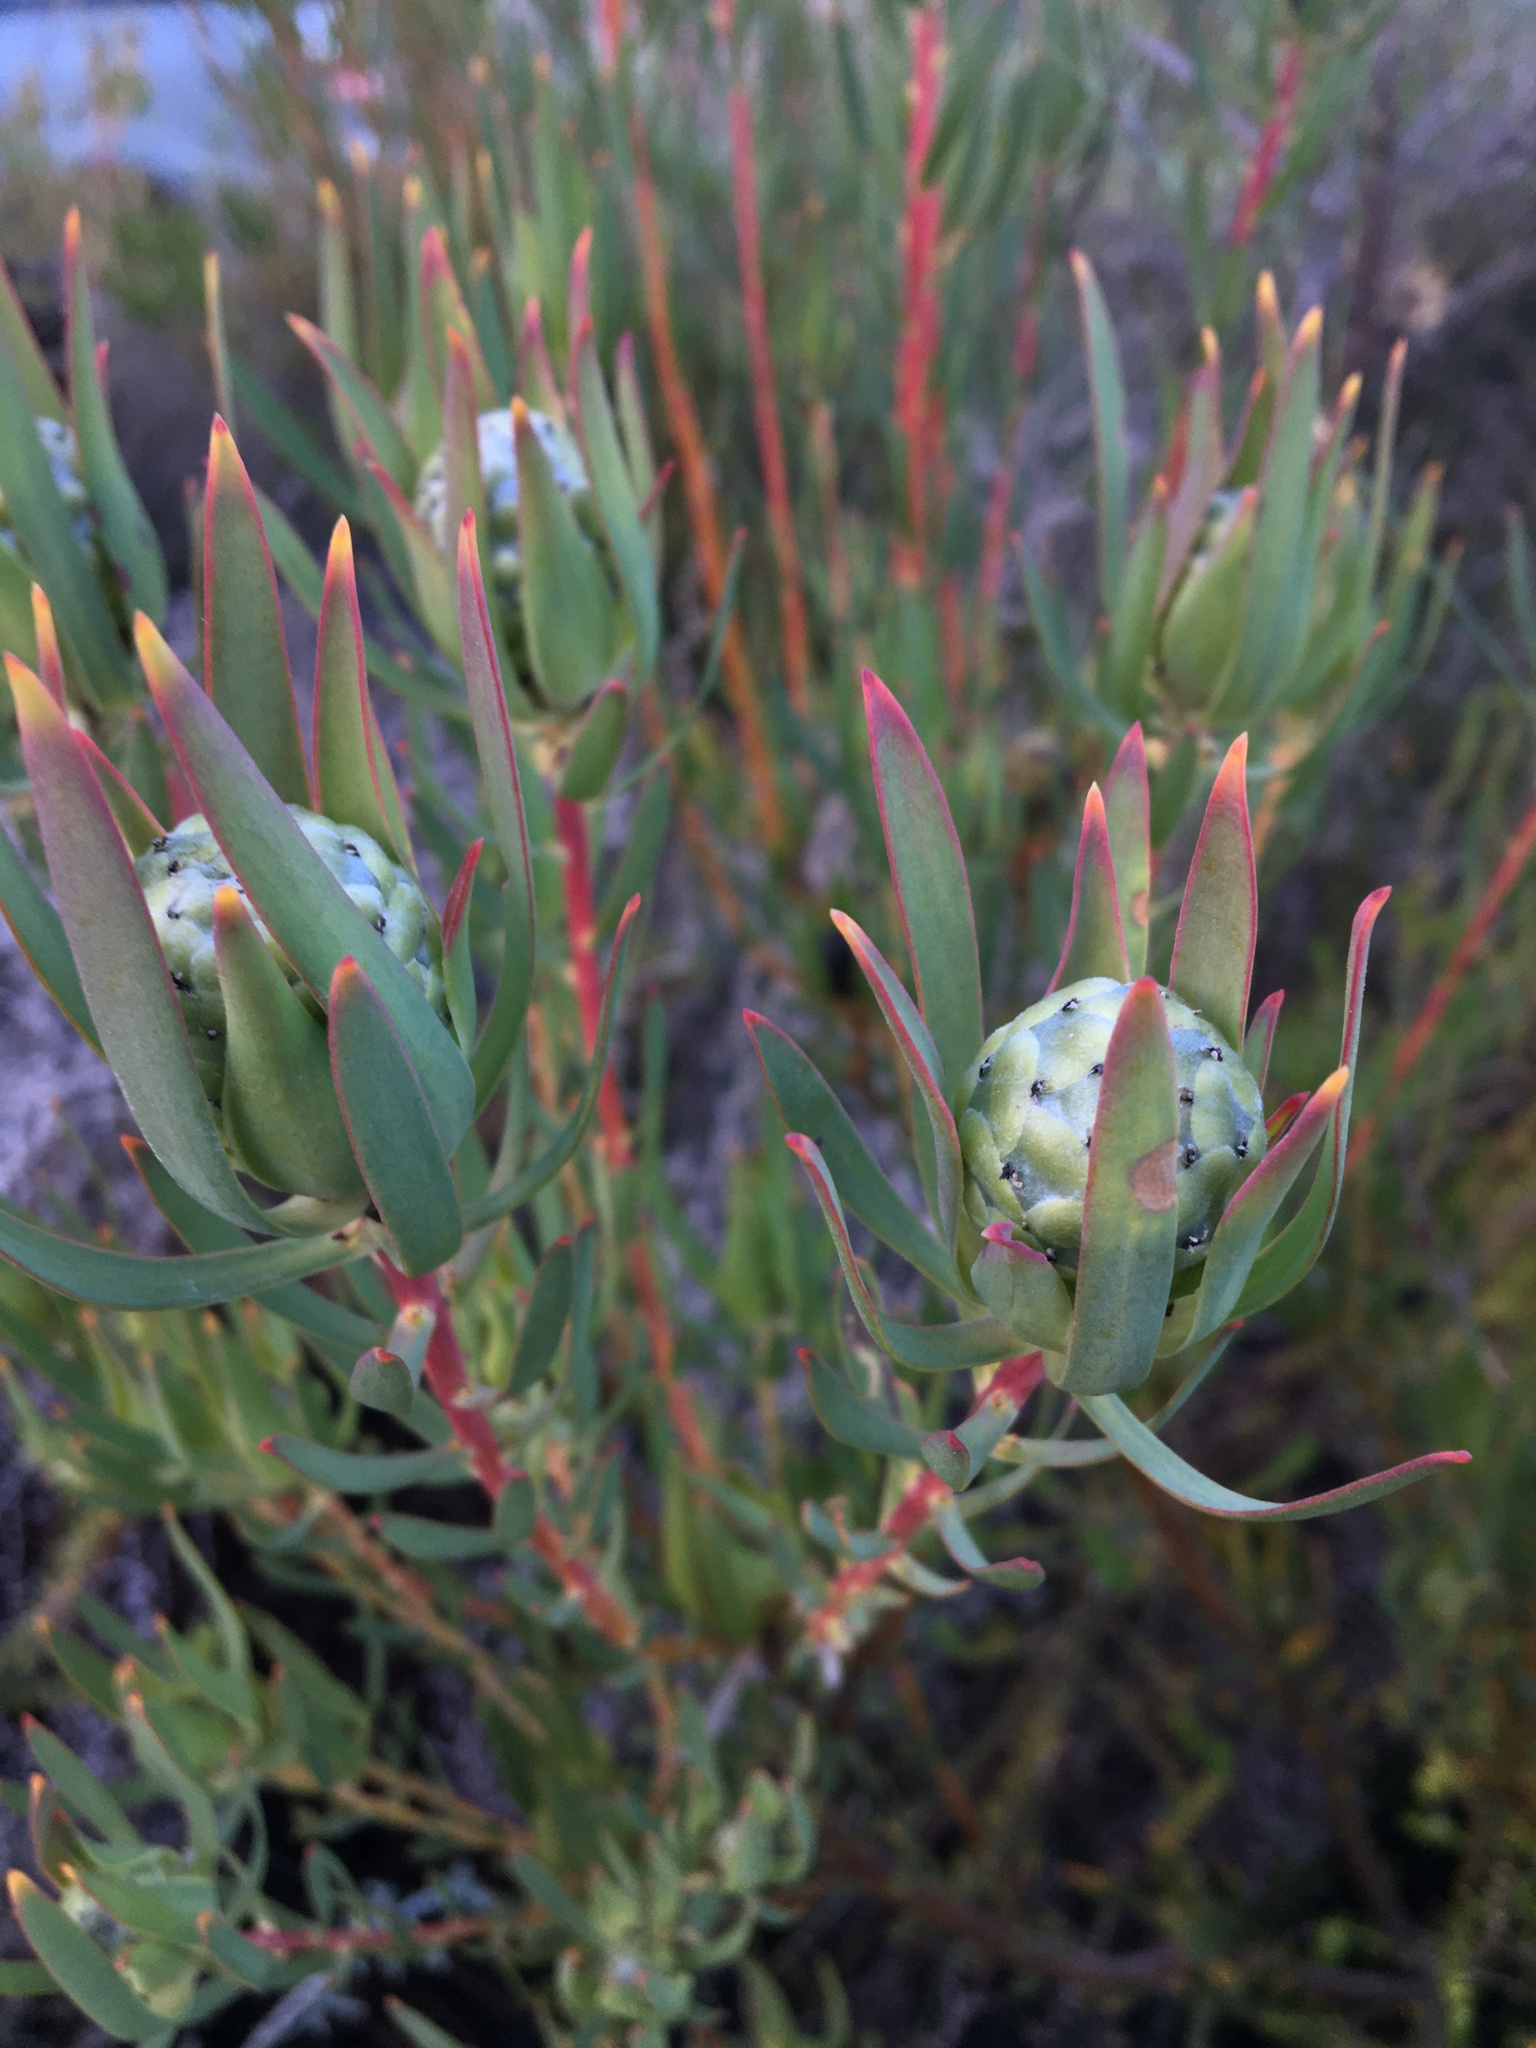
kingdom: Plantae
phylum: Tracheophyta
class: Magnoliopsida
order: Proteales
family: Proteaceae
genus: Leucadendron
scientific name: Leucadendron salignum
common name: Common sunshine conebush
